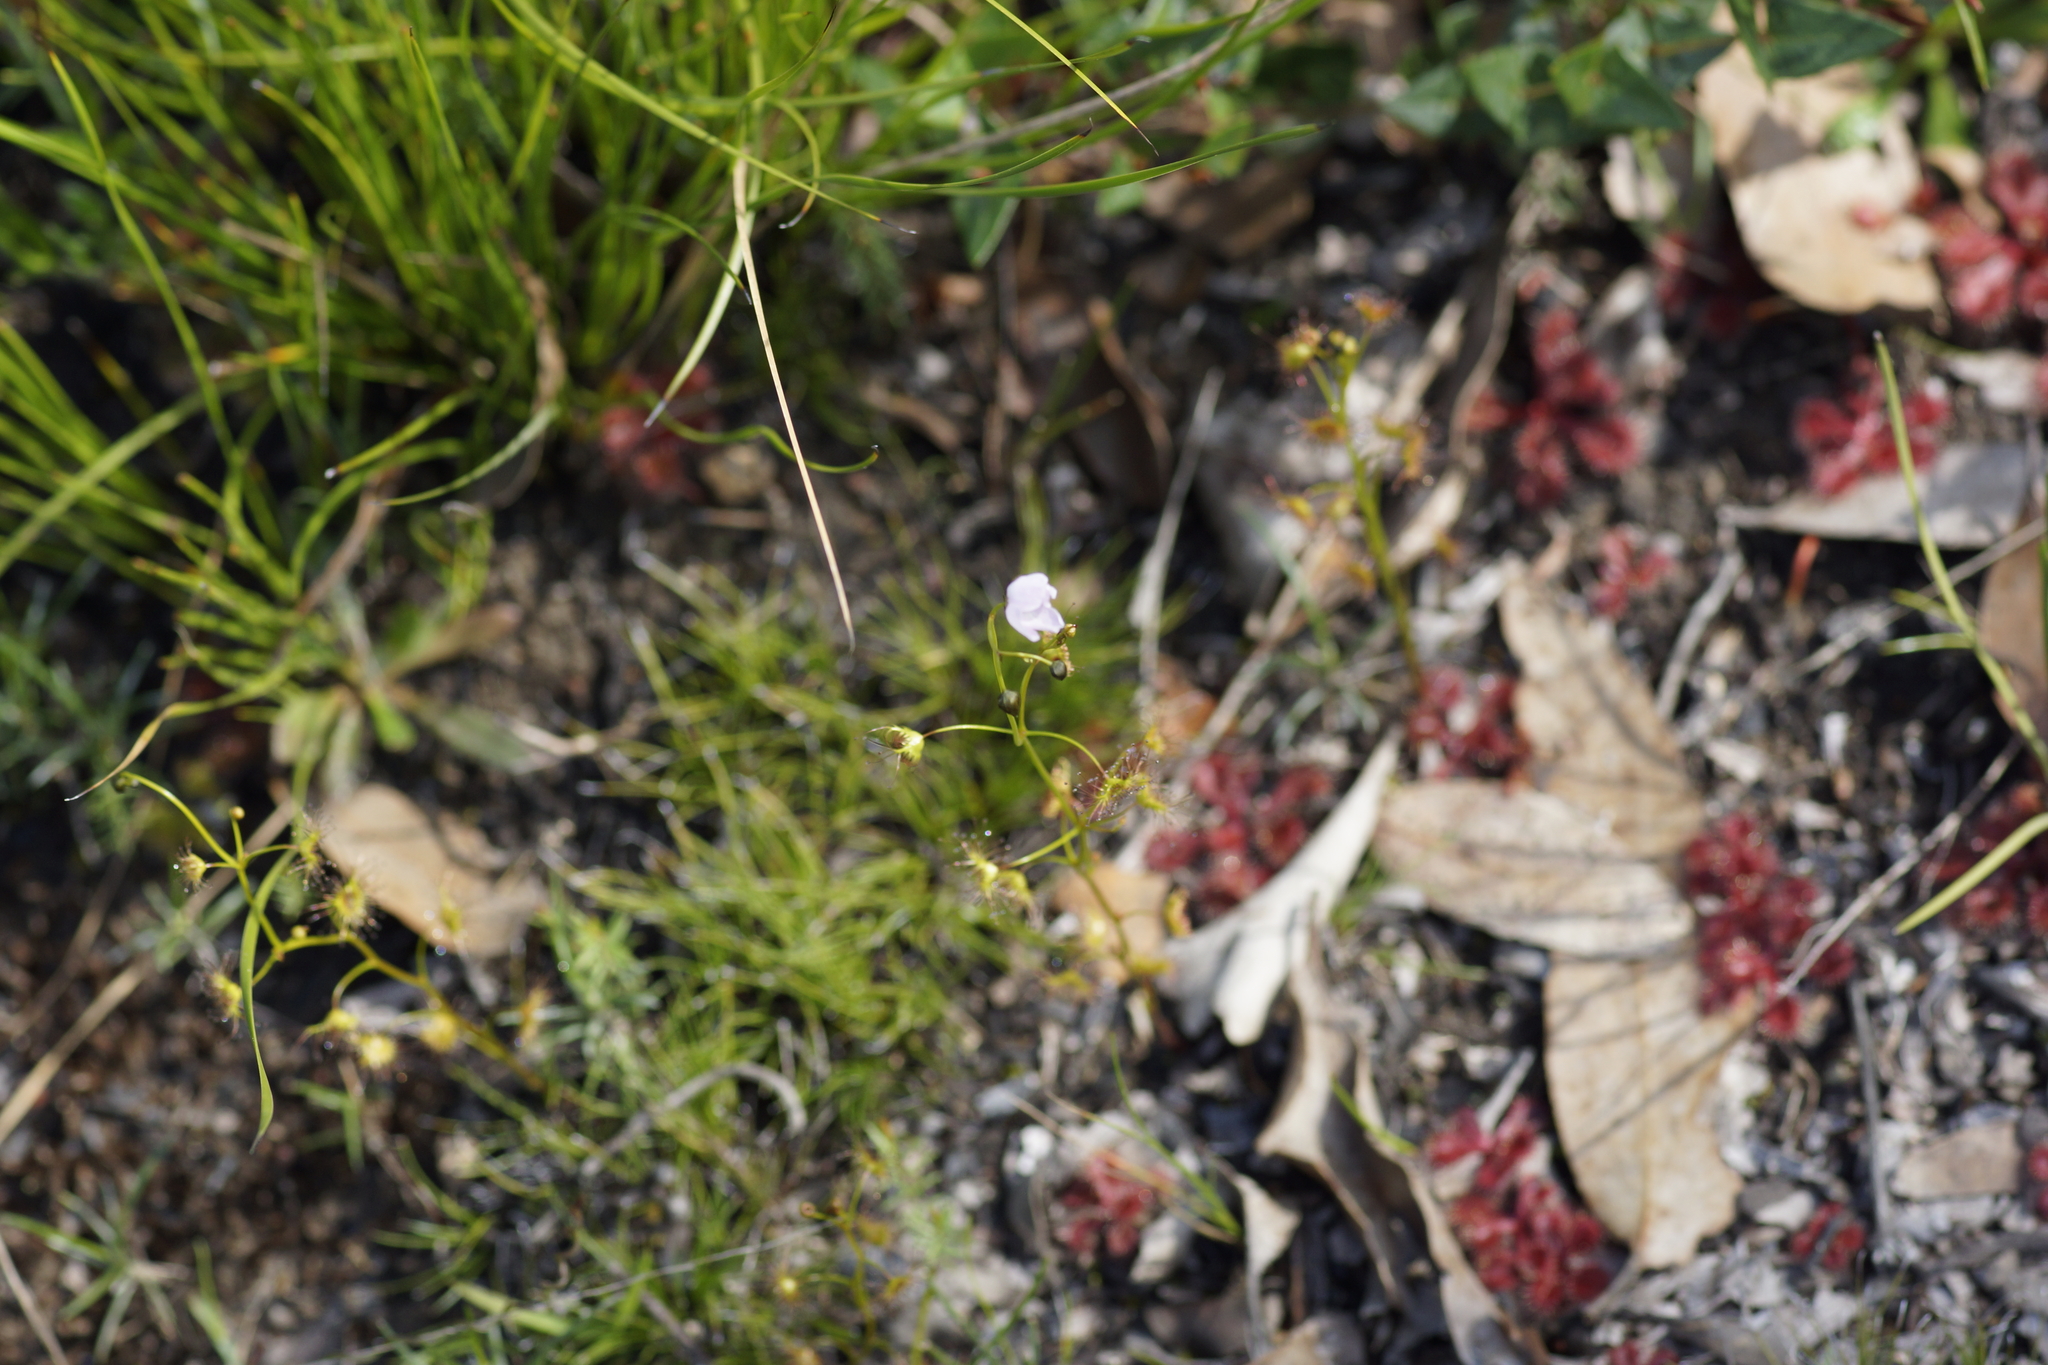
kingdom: Plantae
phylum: Tracheophyta
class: Magnoliopsida
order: Caryophyllales
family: Droseraceae
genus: Drosera
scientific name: Drosera peltata
